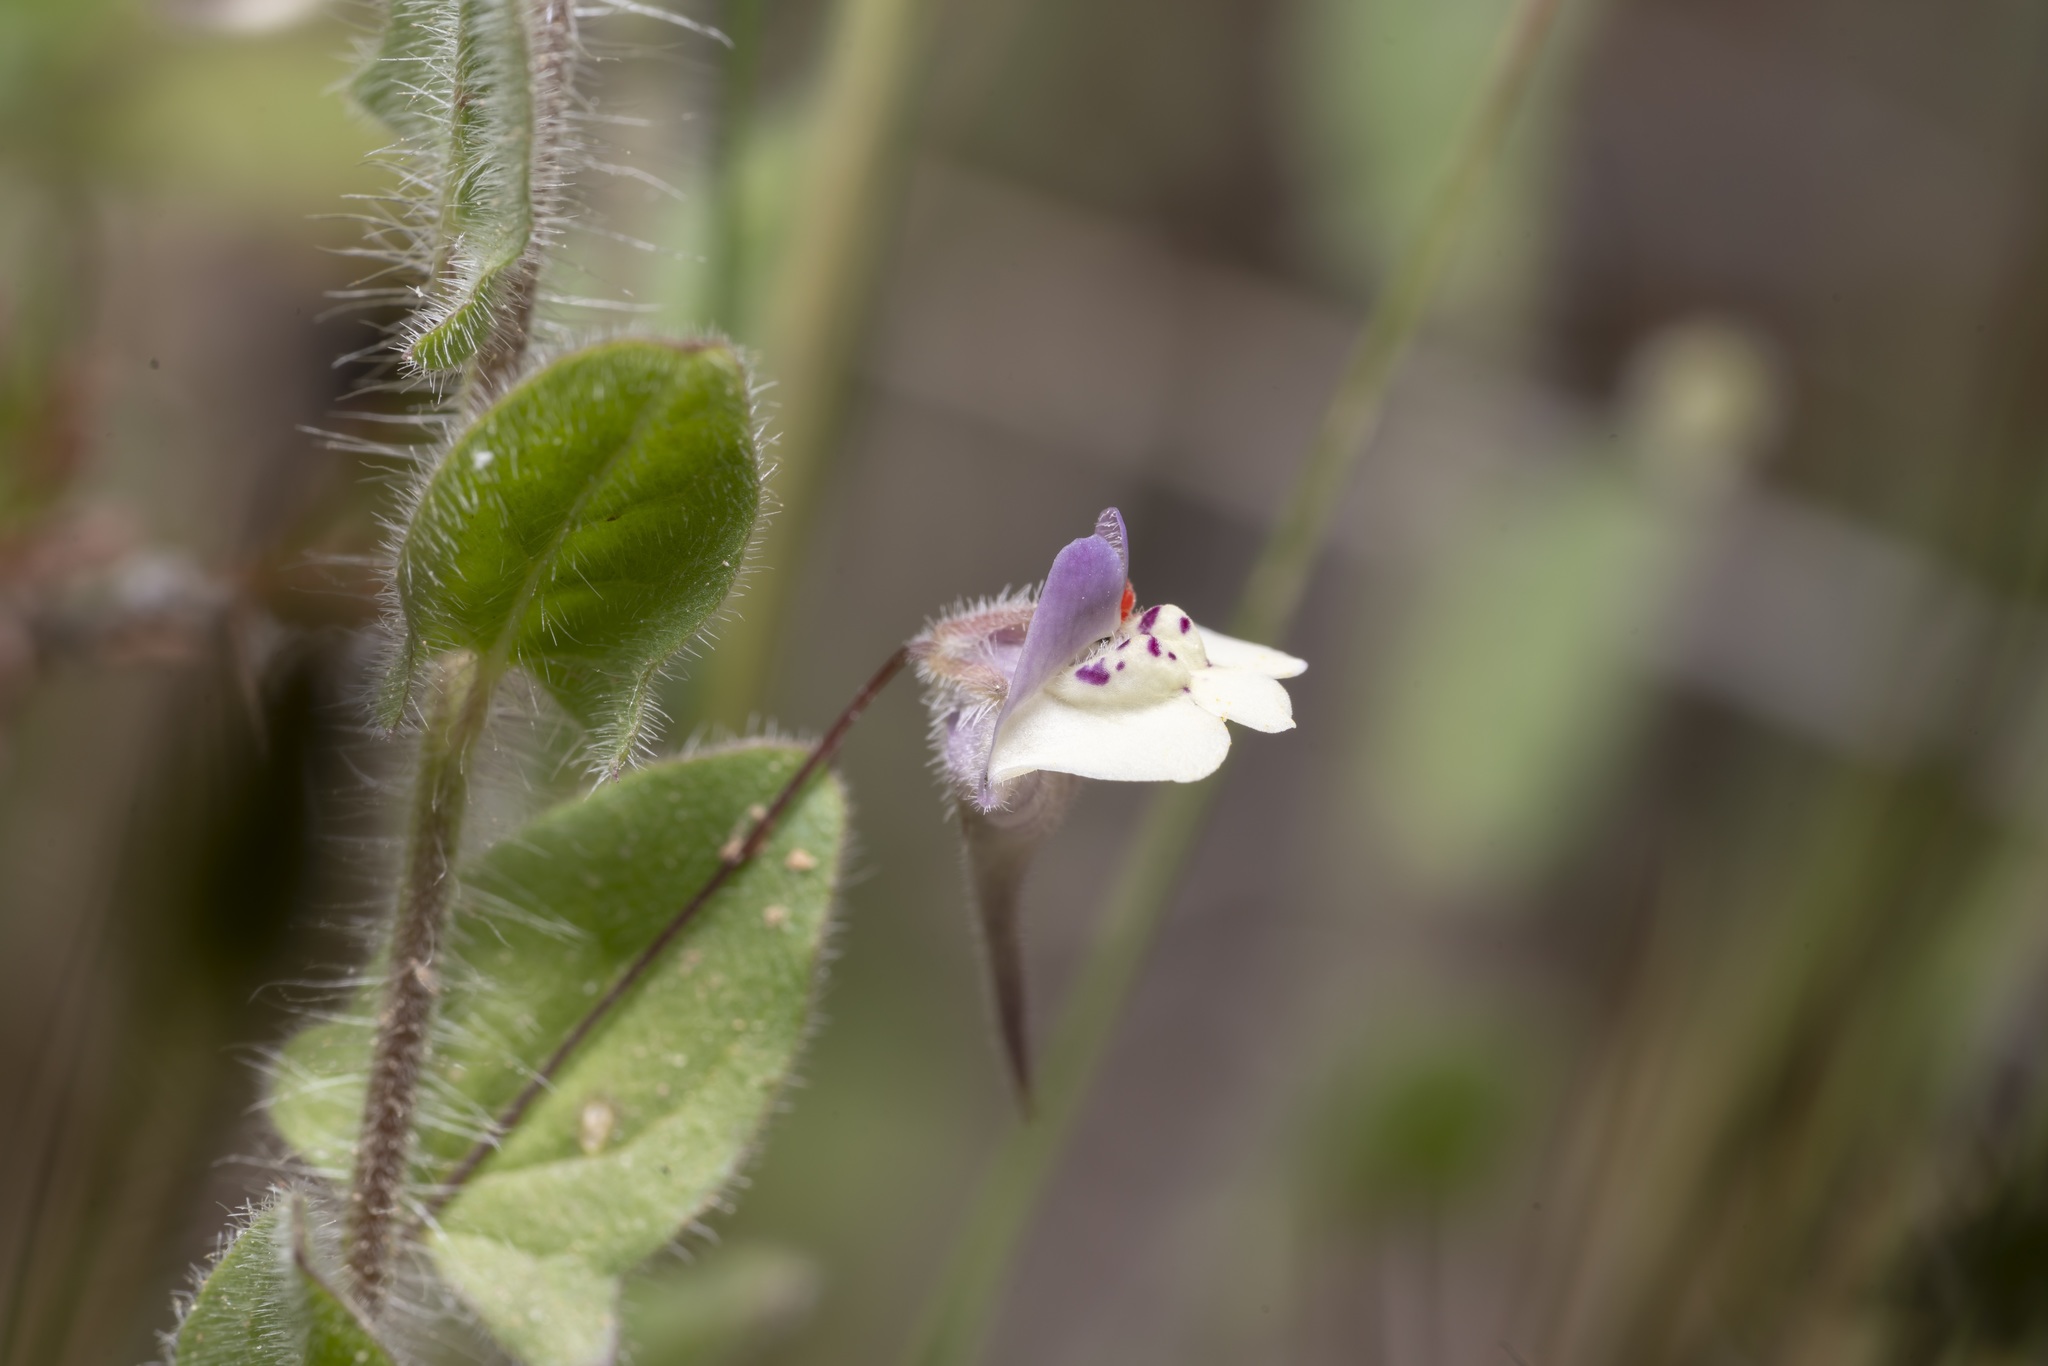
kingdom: Plantae
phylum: Tracheophyta
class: Magnoliopsida
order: Lamiales
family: Plantaginaceae
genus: Kickxia
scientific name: Kickxia commutata
